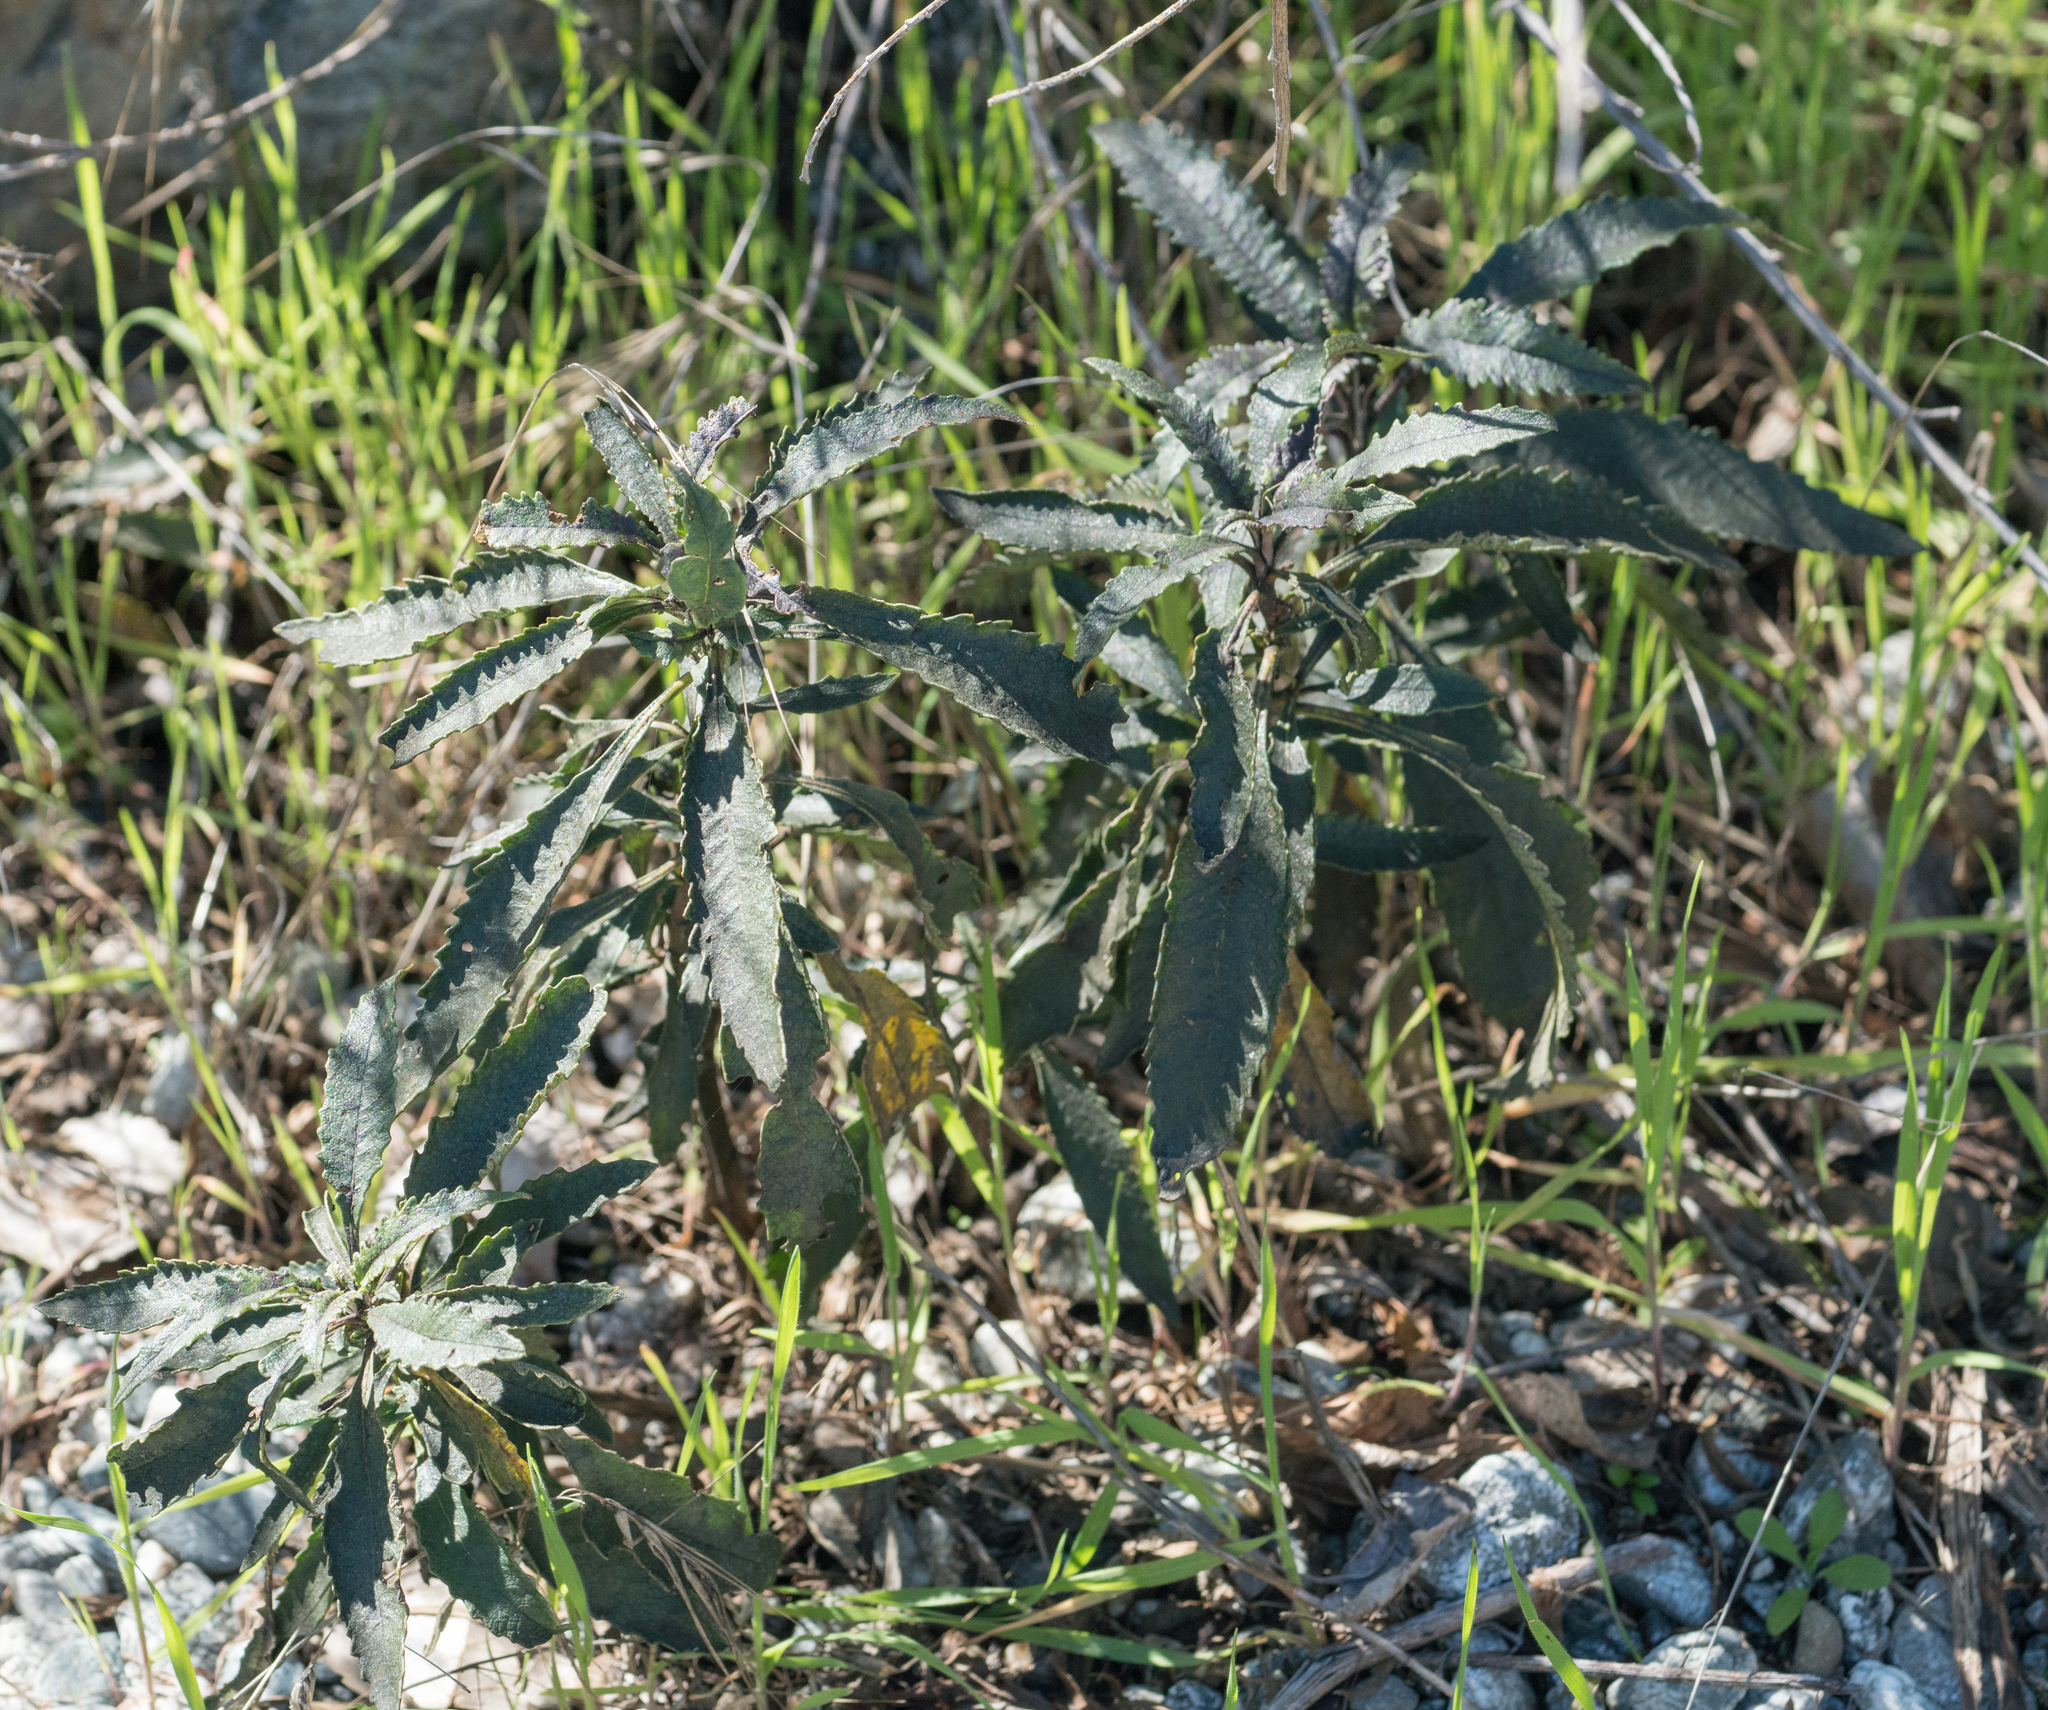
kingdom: Plantae
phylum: Tracheophyta
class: Magnoliopsida
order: Boraginales
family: Namaceae
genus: Eriodictyon
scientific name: Eriodictyon trichocalyx
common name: Hairy yerba-santa
